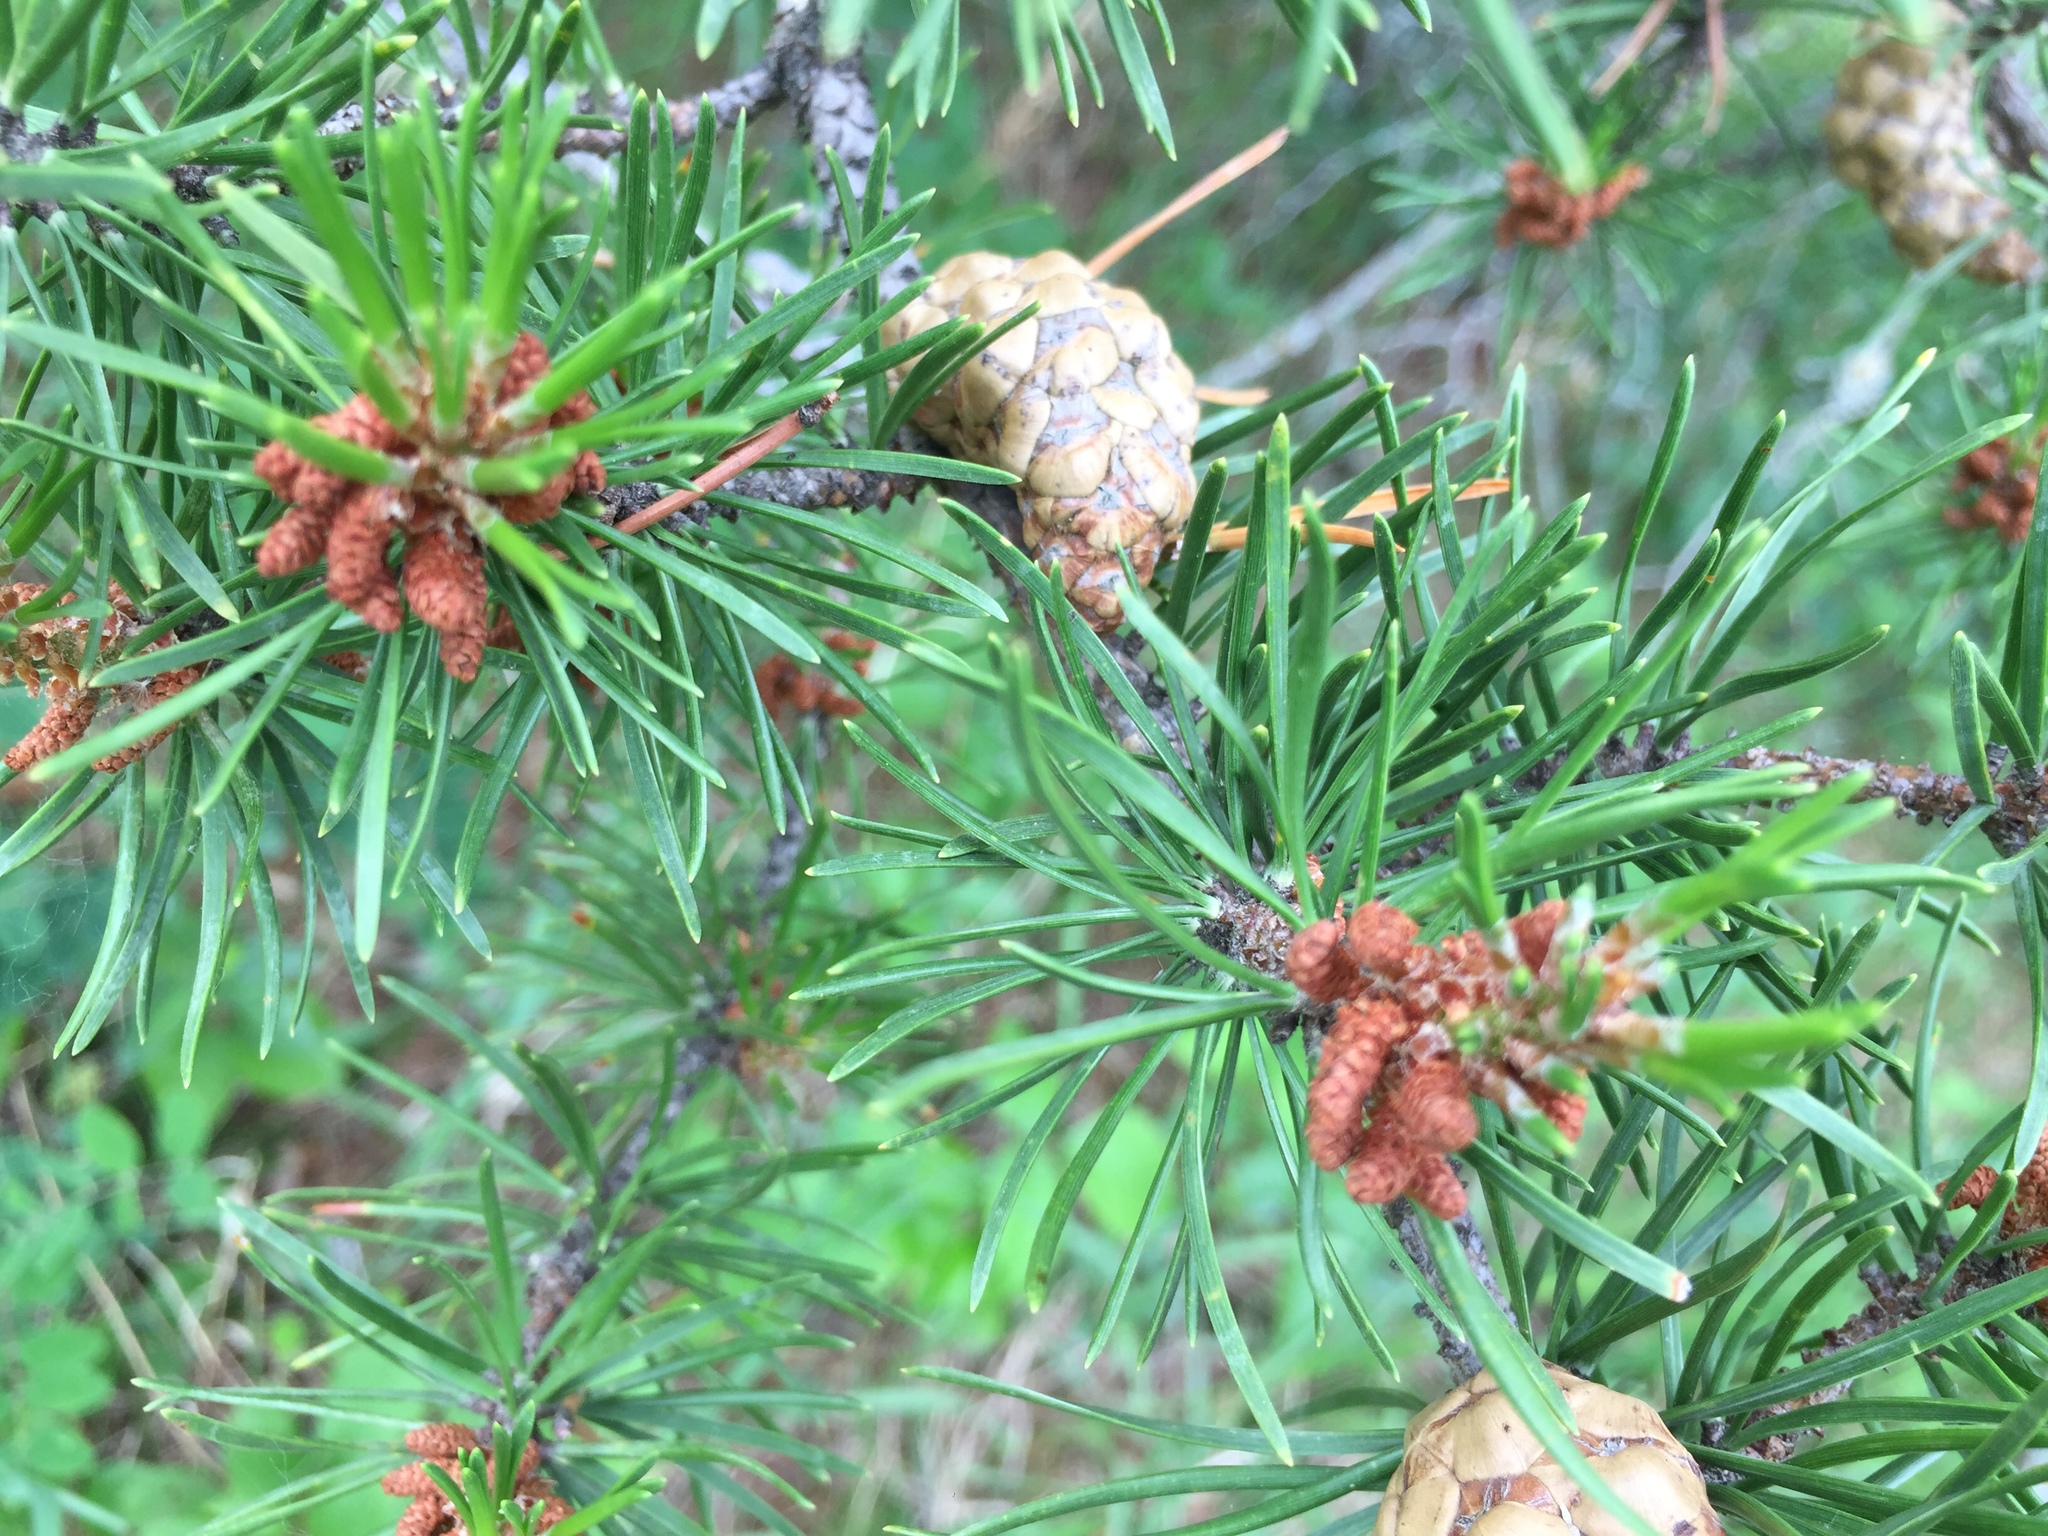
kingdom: Plantae
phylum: Tracheophyta
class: Pinopsida
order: Pinales
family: Pinaceae
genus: Pinus
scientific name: Pinus banksiana
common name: Jack pine
